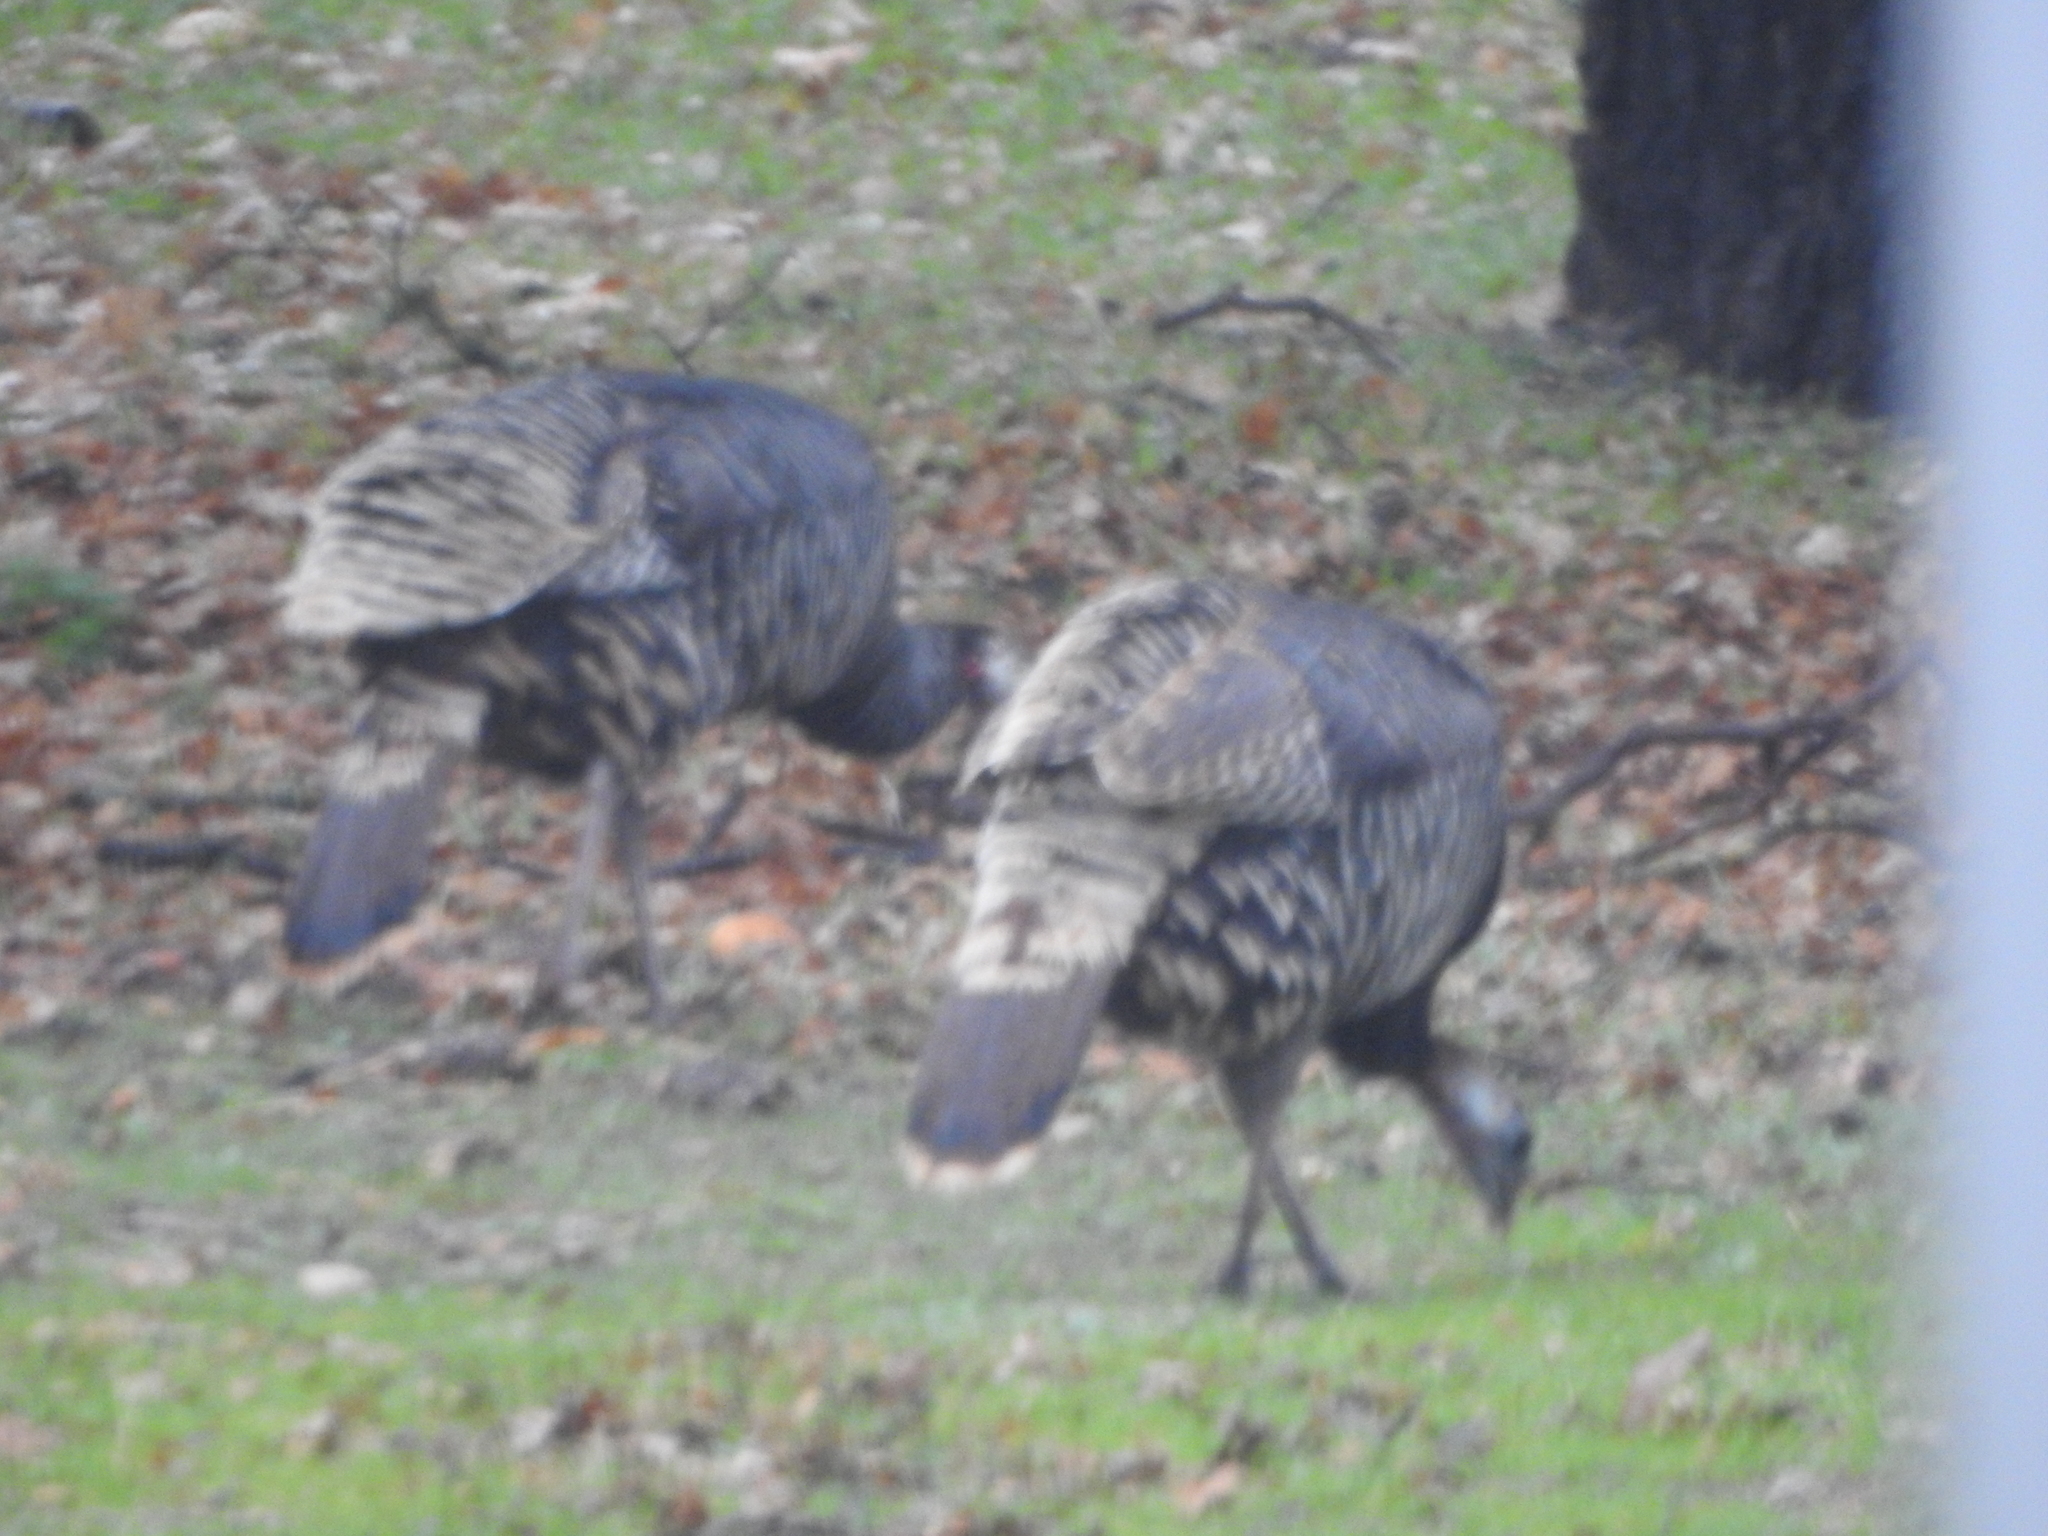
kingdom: Animalia
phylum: Chordata
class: Aves
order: Galliformes
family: Phasianidae
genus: Meleagris
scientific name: Meleagris gallopavo
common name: Wild turkey
